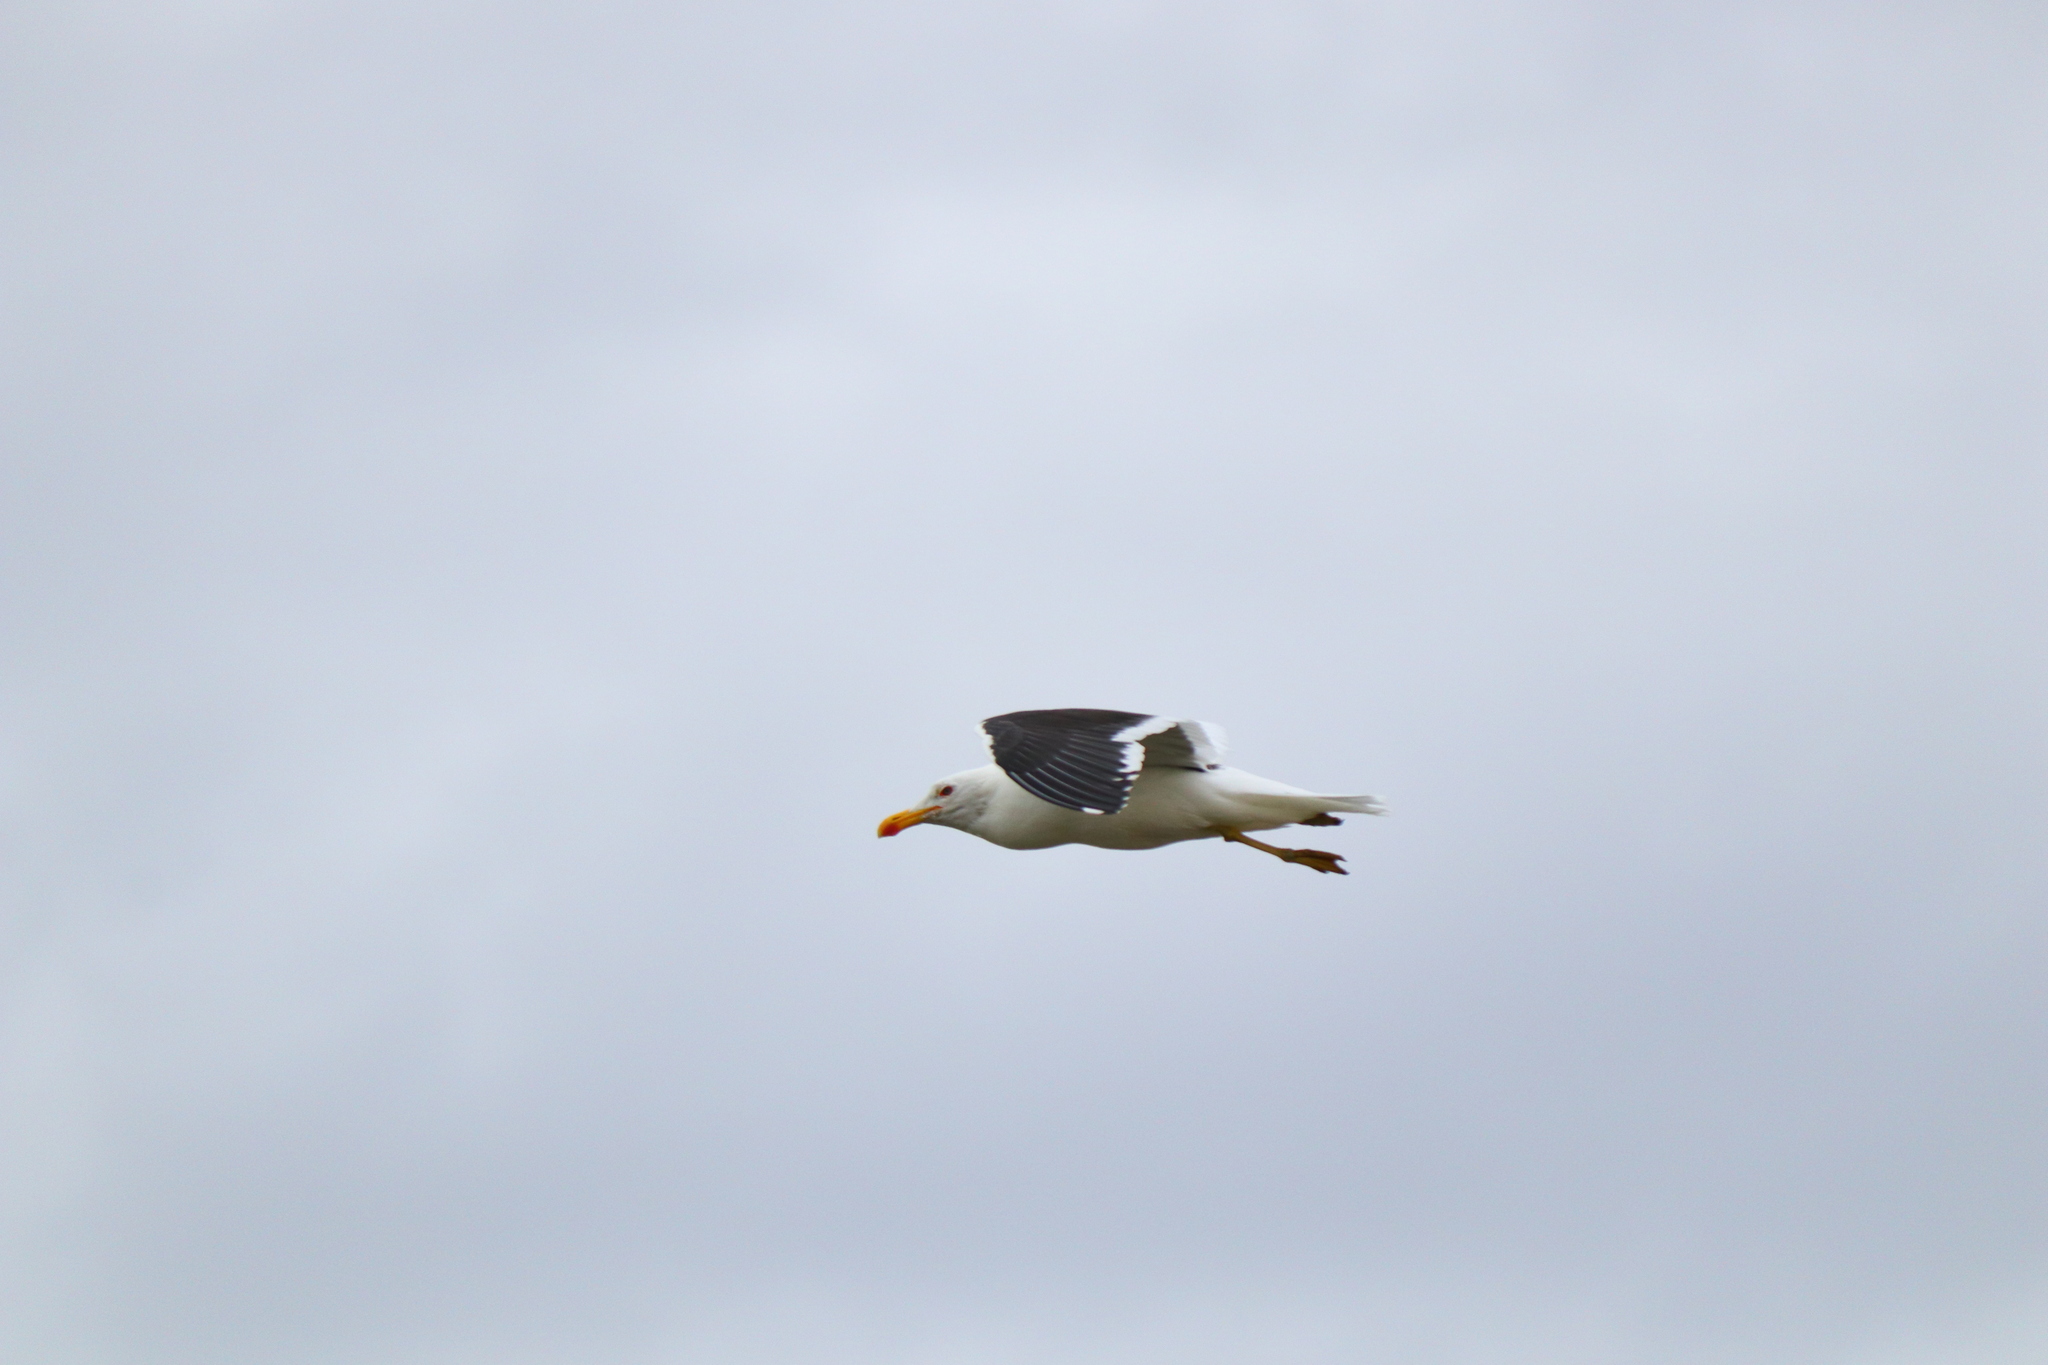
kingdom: Animalia
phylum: Chordata
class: Aves
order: Charadriiformes
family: Laridae
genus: Larus
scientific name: Larus dominicanus
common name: Kelp gull
